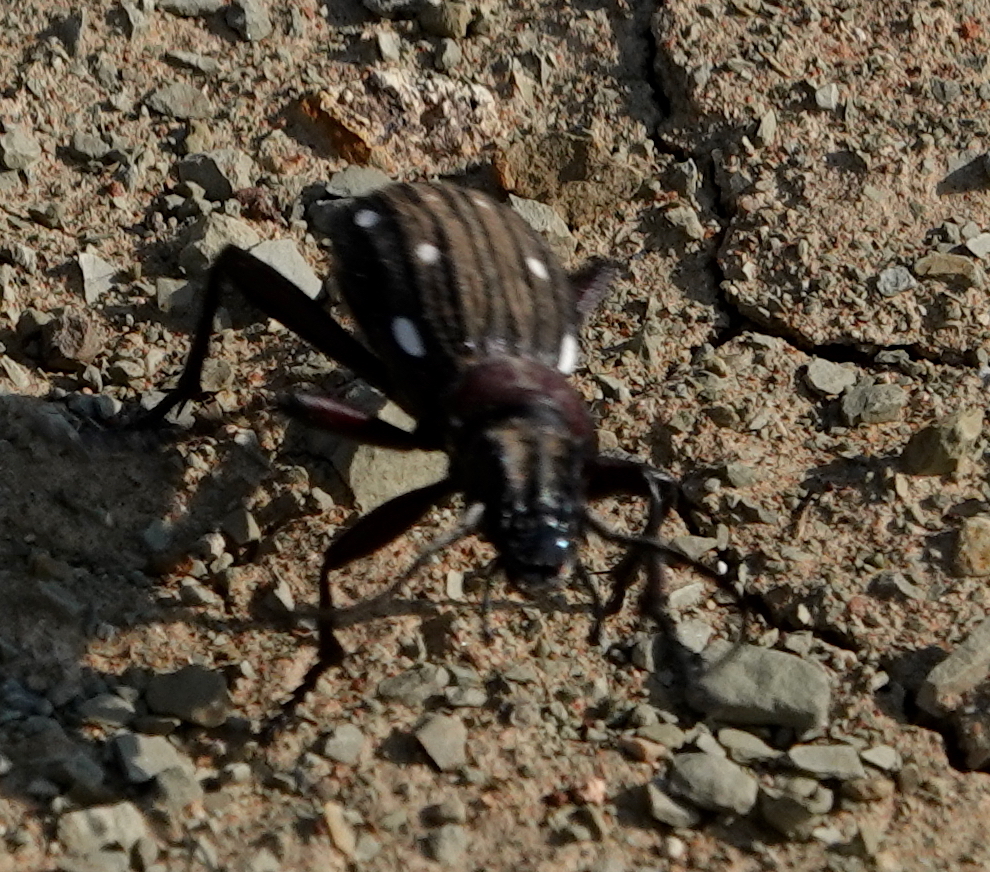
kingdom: Animalia
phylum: Arthropoda
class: Insecta
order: Coleoptera
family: Carabidae
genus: Anthia
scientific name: Anthia decemguttata
